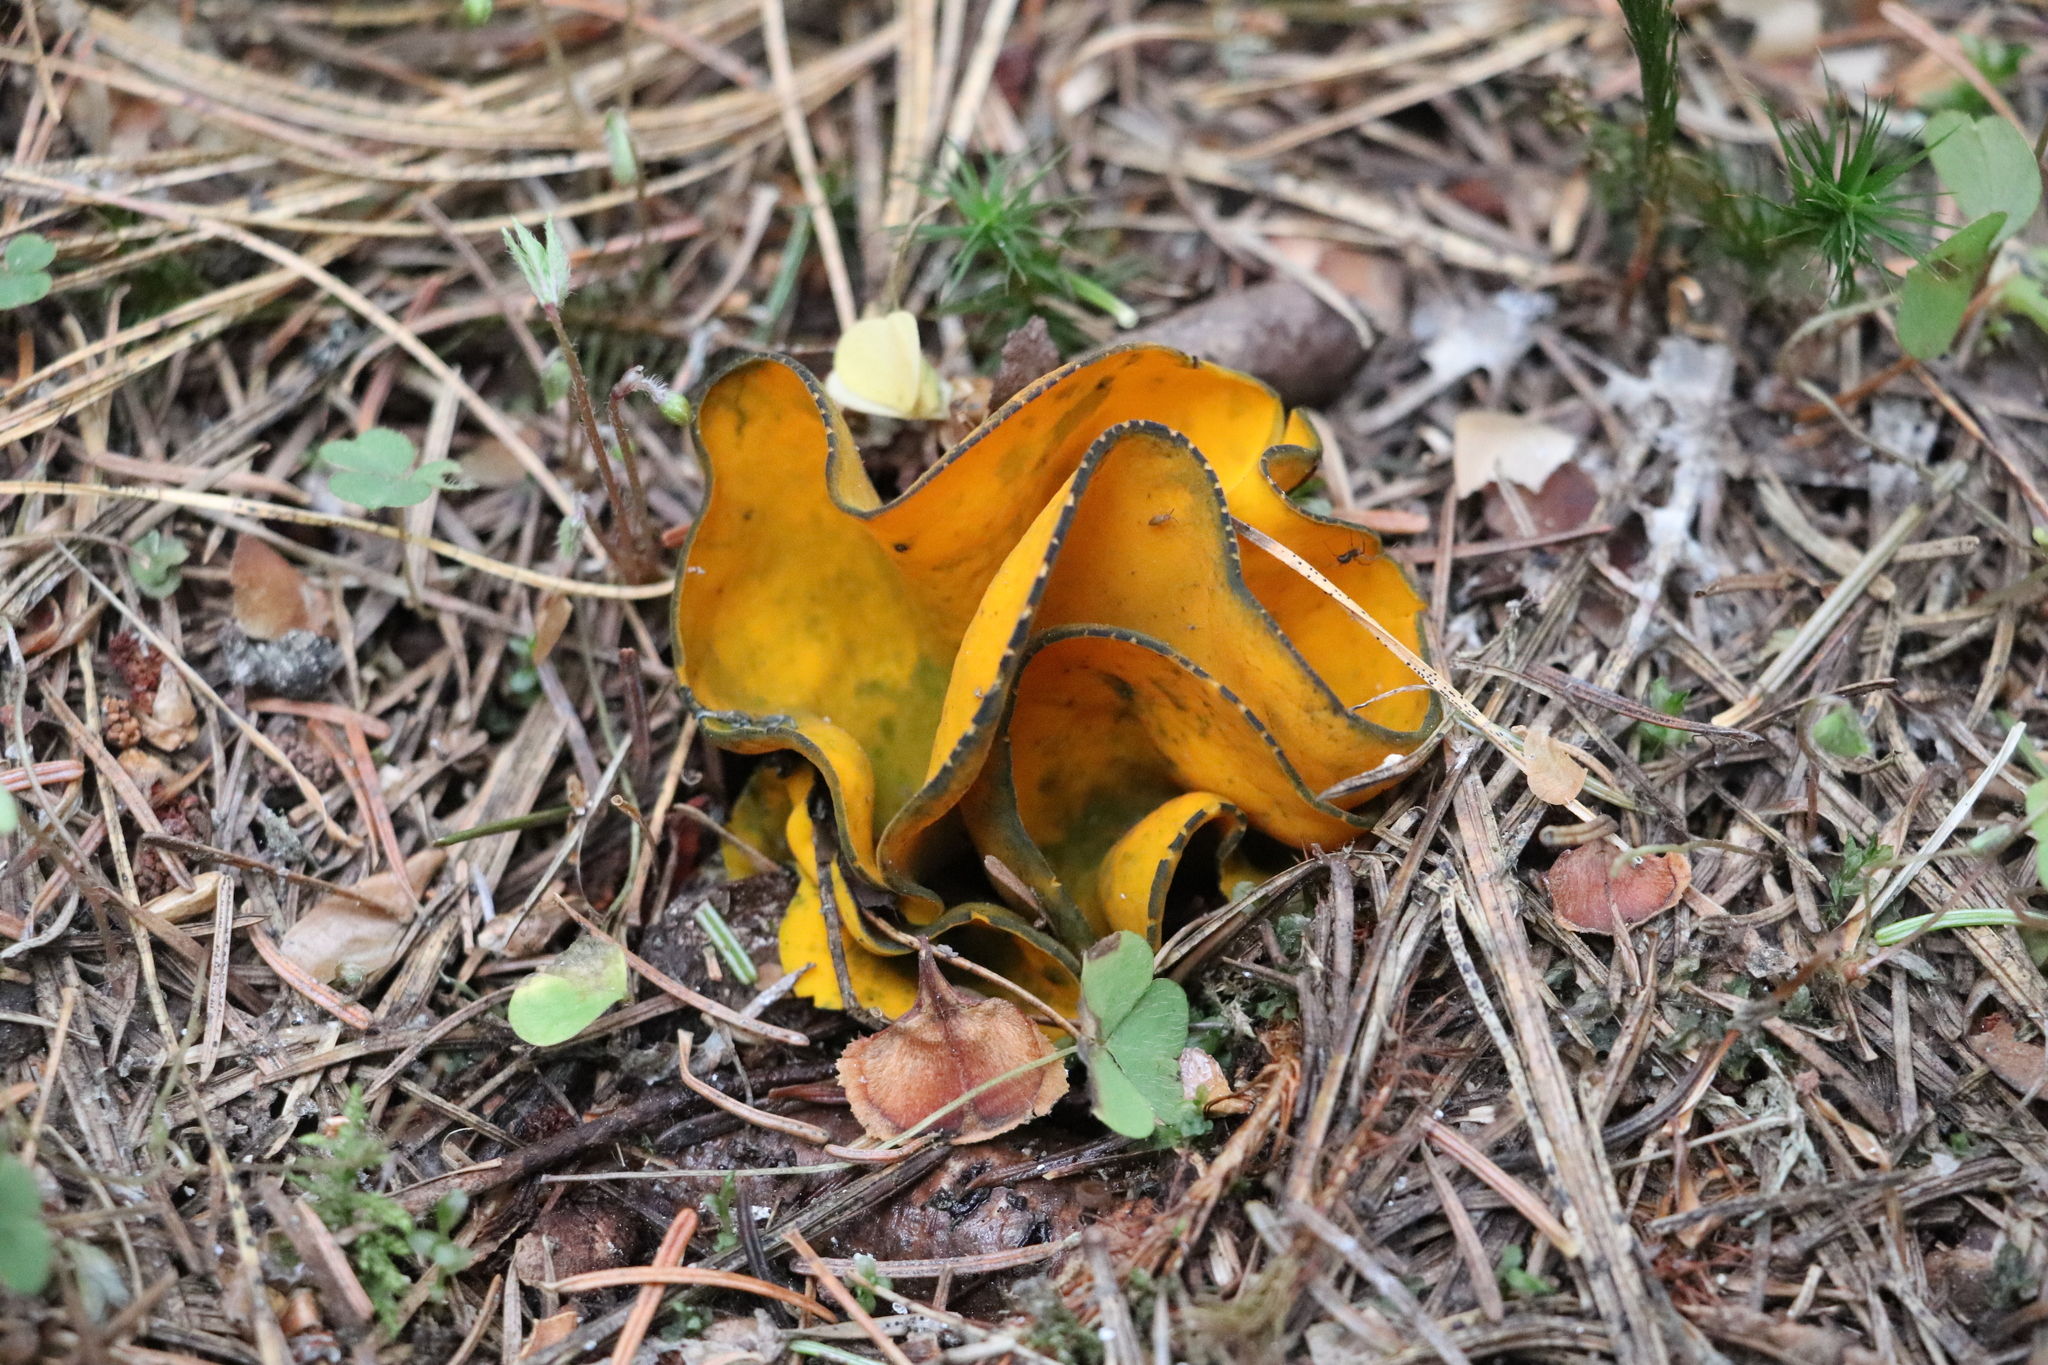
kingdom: Fungi
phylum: Ascomycota
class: Pezizomycetes
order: Pezizales
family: Caloscyphaceae
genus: Caloscypha
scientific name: Caloscypha fulgens
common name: Golden cup
